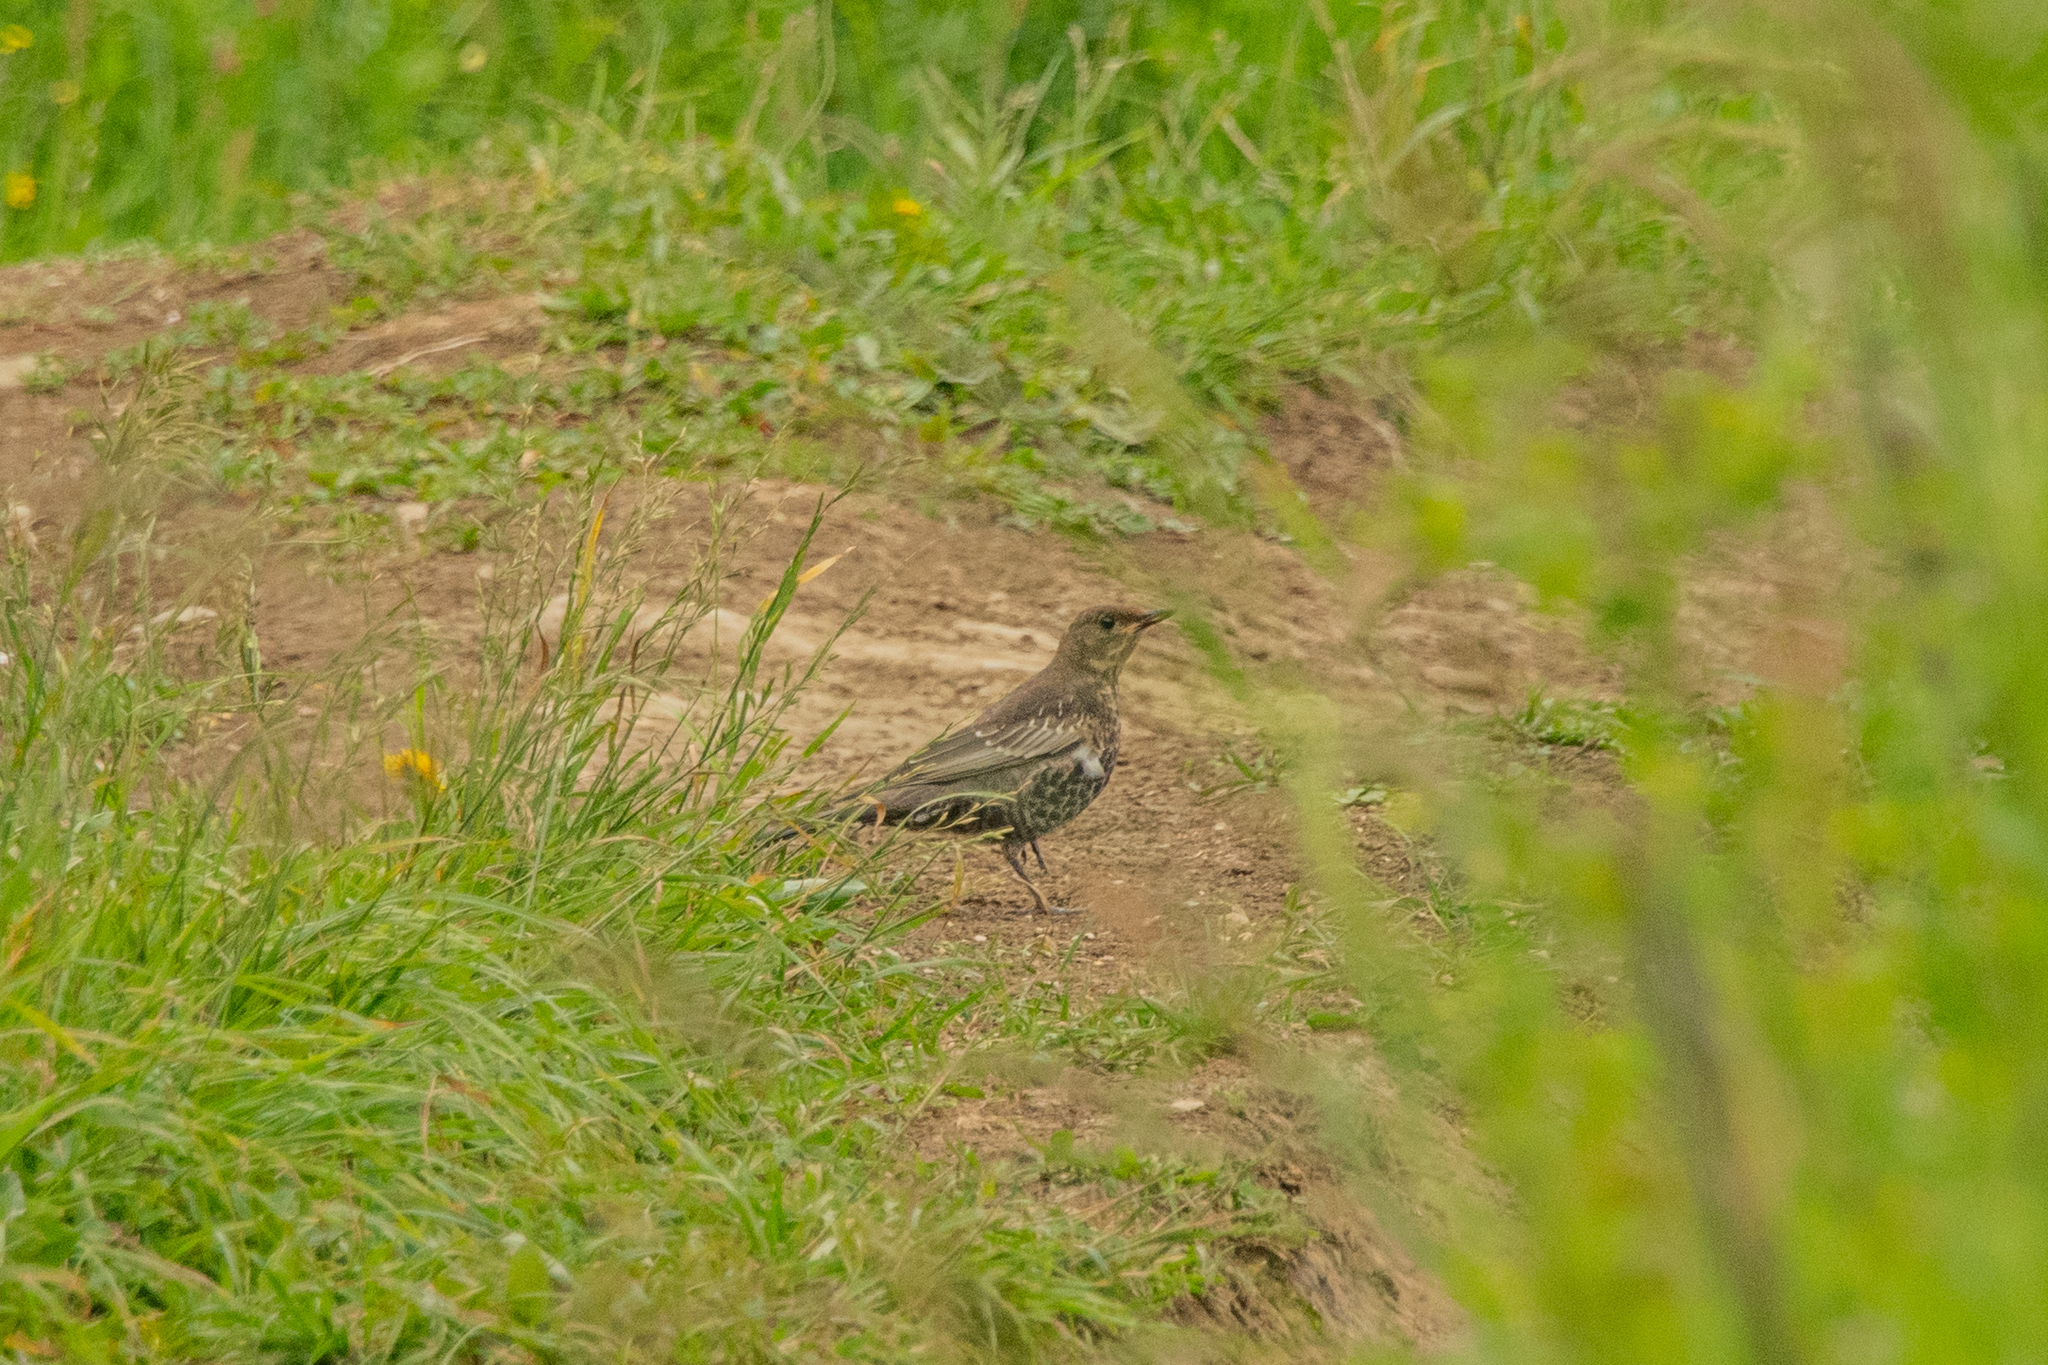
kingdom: Animalia
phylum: Chordata
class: Aves
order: Passeriformes
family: Turdidae
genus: Turdus
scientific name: Turdus torquatus
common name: Ring ouzel
